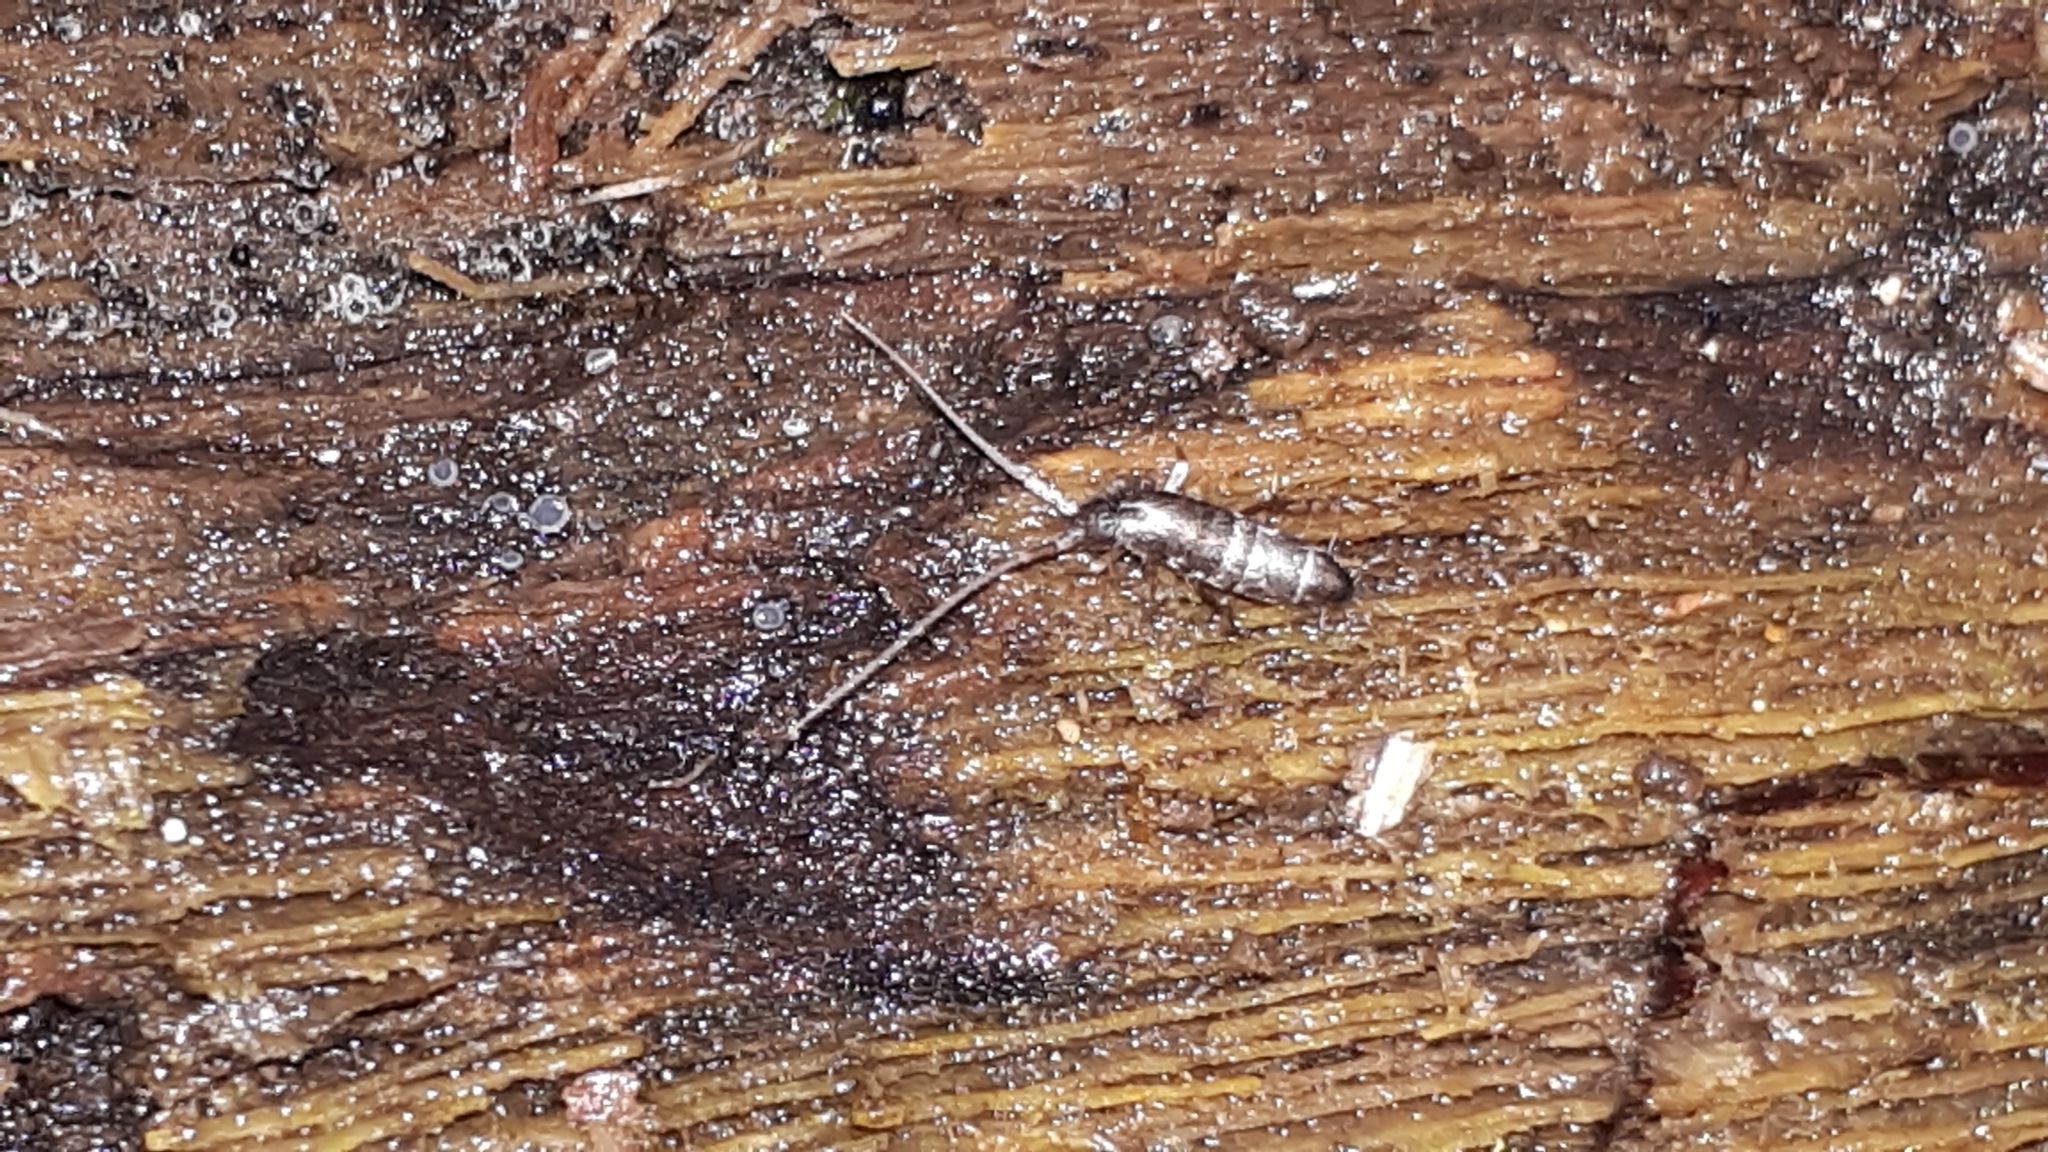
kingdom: Animalia
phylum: Arthropoda
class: Collembola
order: Entomobryomorpha
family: Tomoceridae
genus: Pogonognathellus
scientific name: Pogonognathellus longicornis
